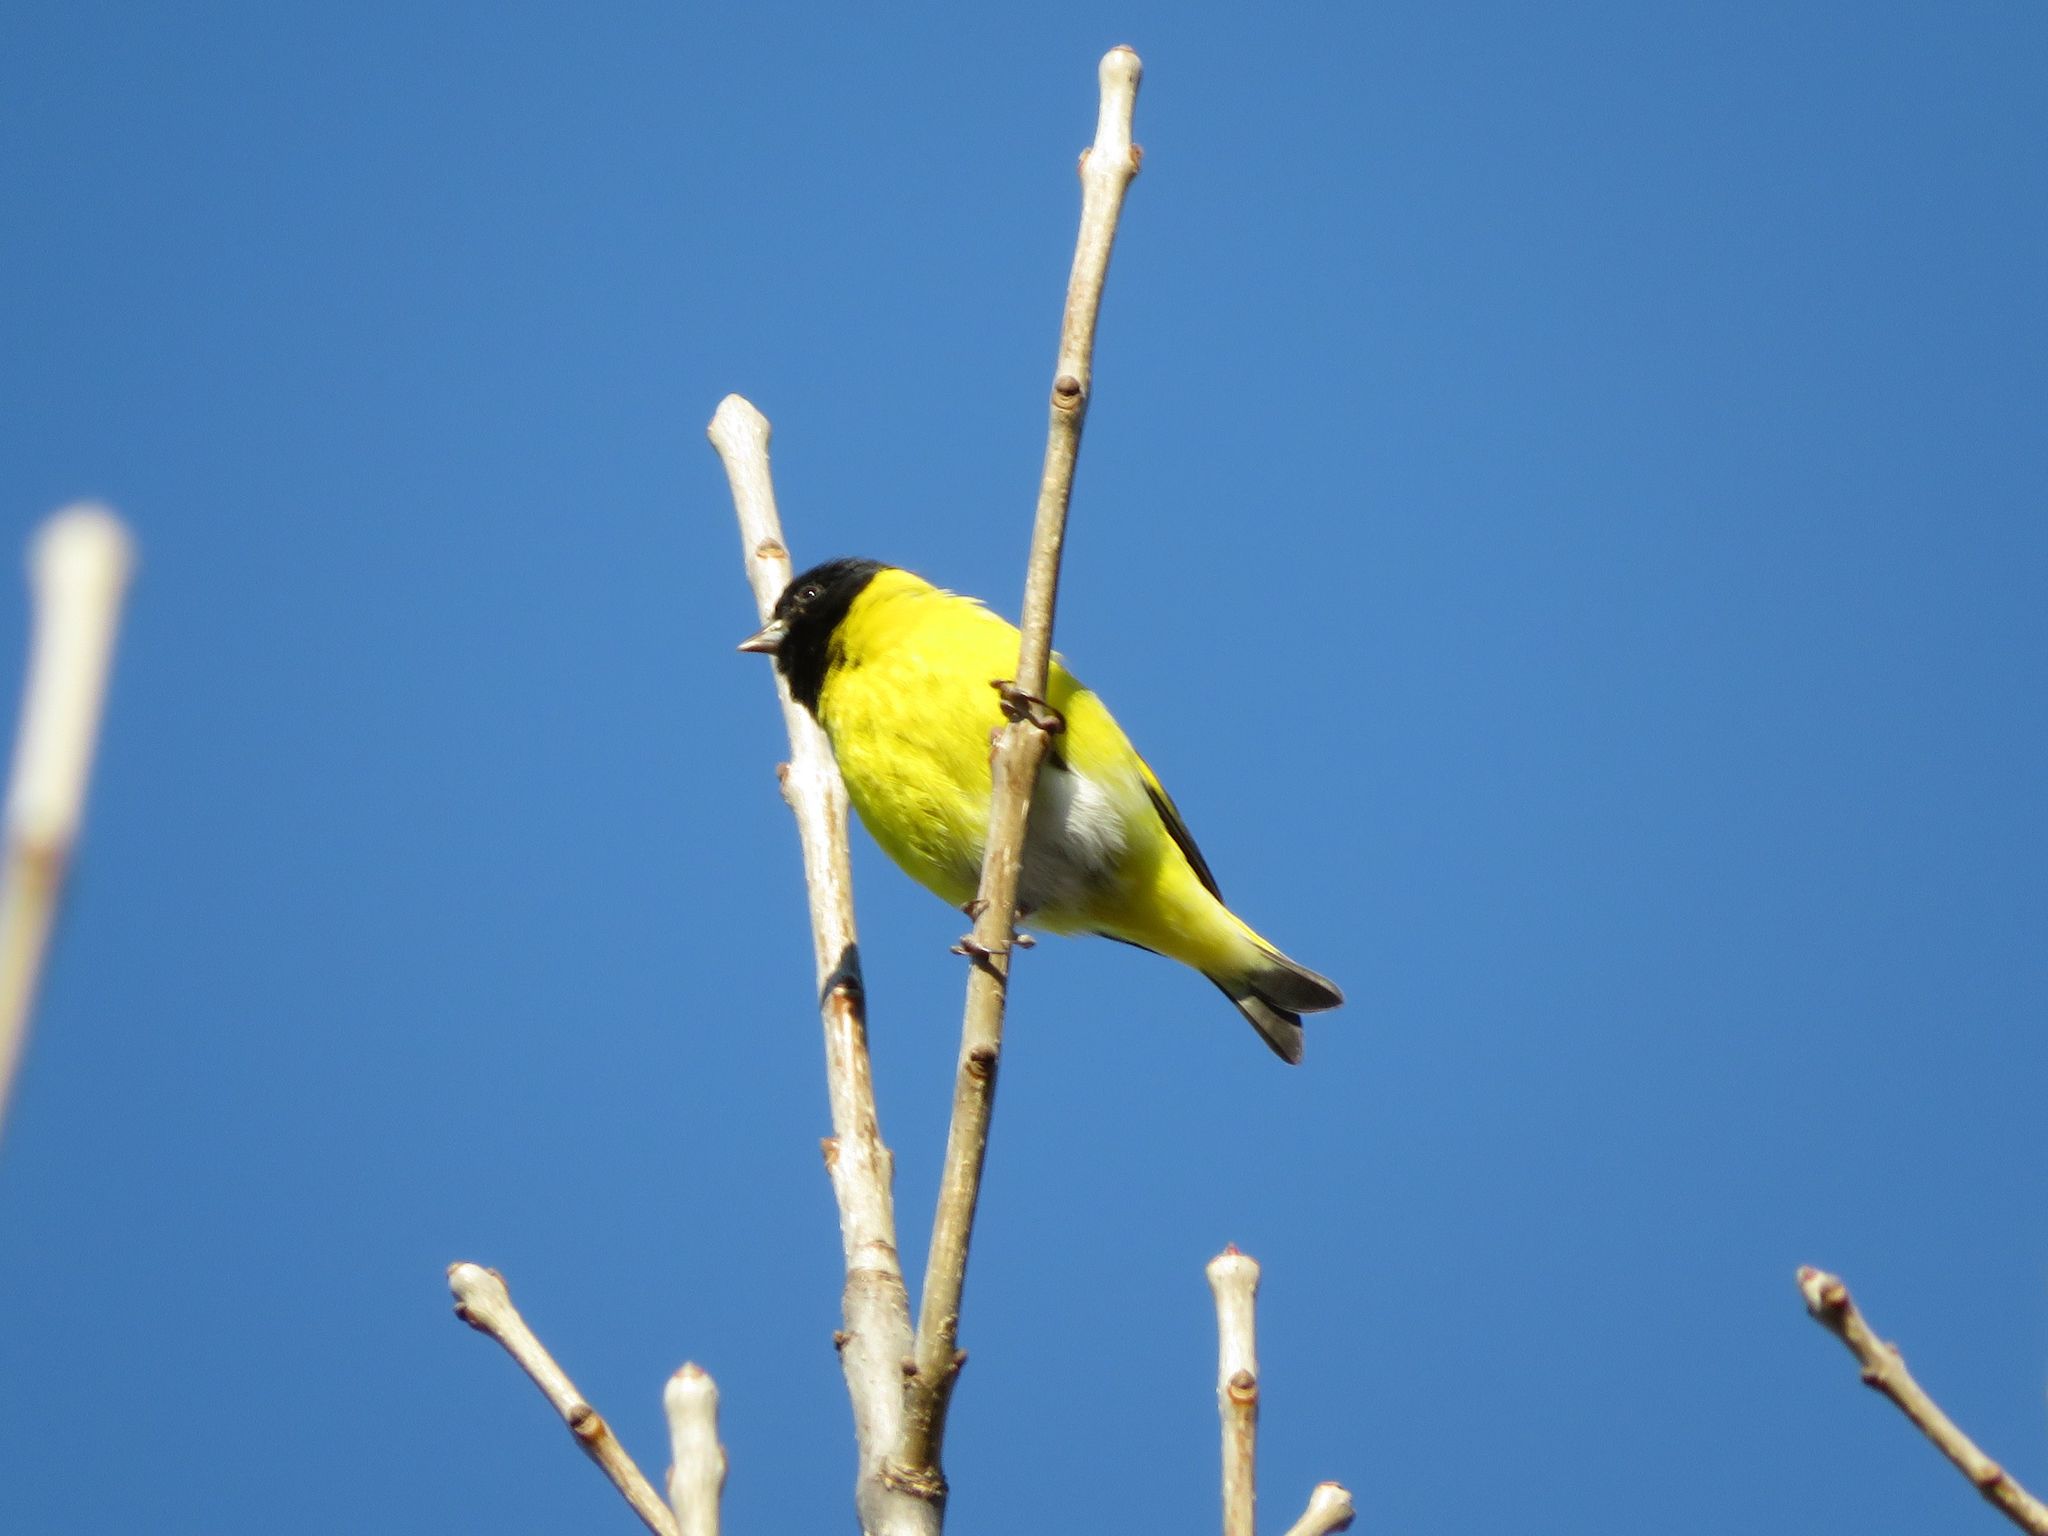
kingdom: Animalia
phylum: Chordata
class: Aves
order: Passeriformes
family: Fringillidae
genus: Spinus
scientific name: Spinus magellanicus
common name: Hooded siskin
